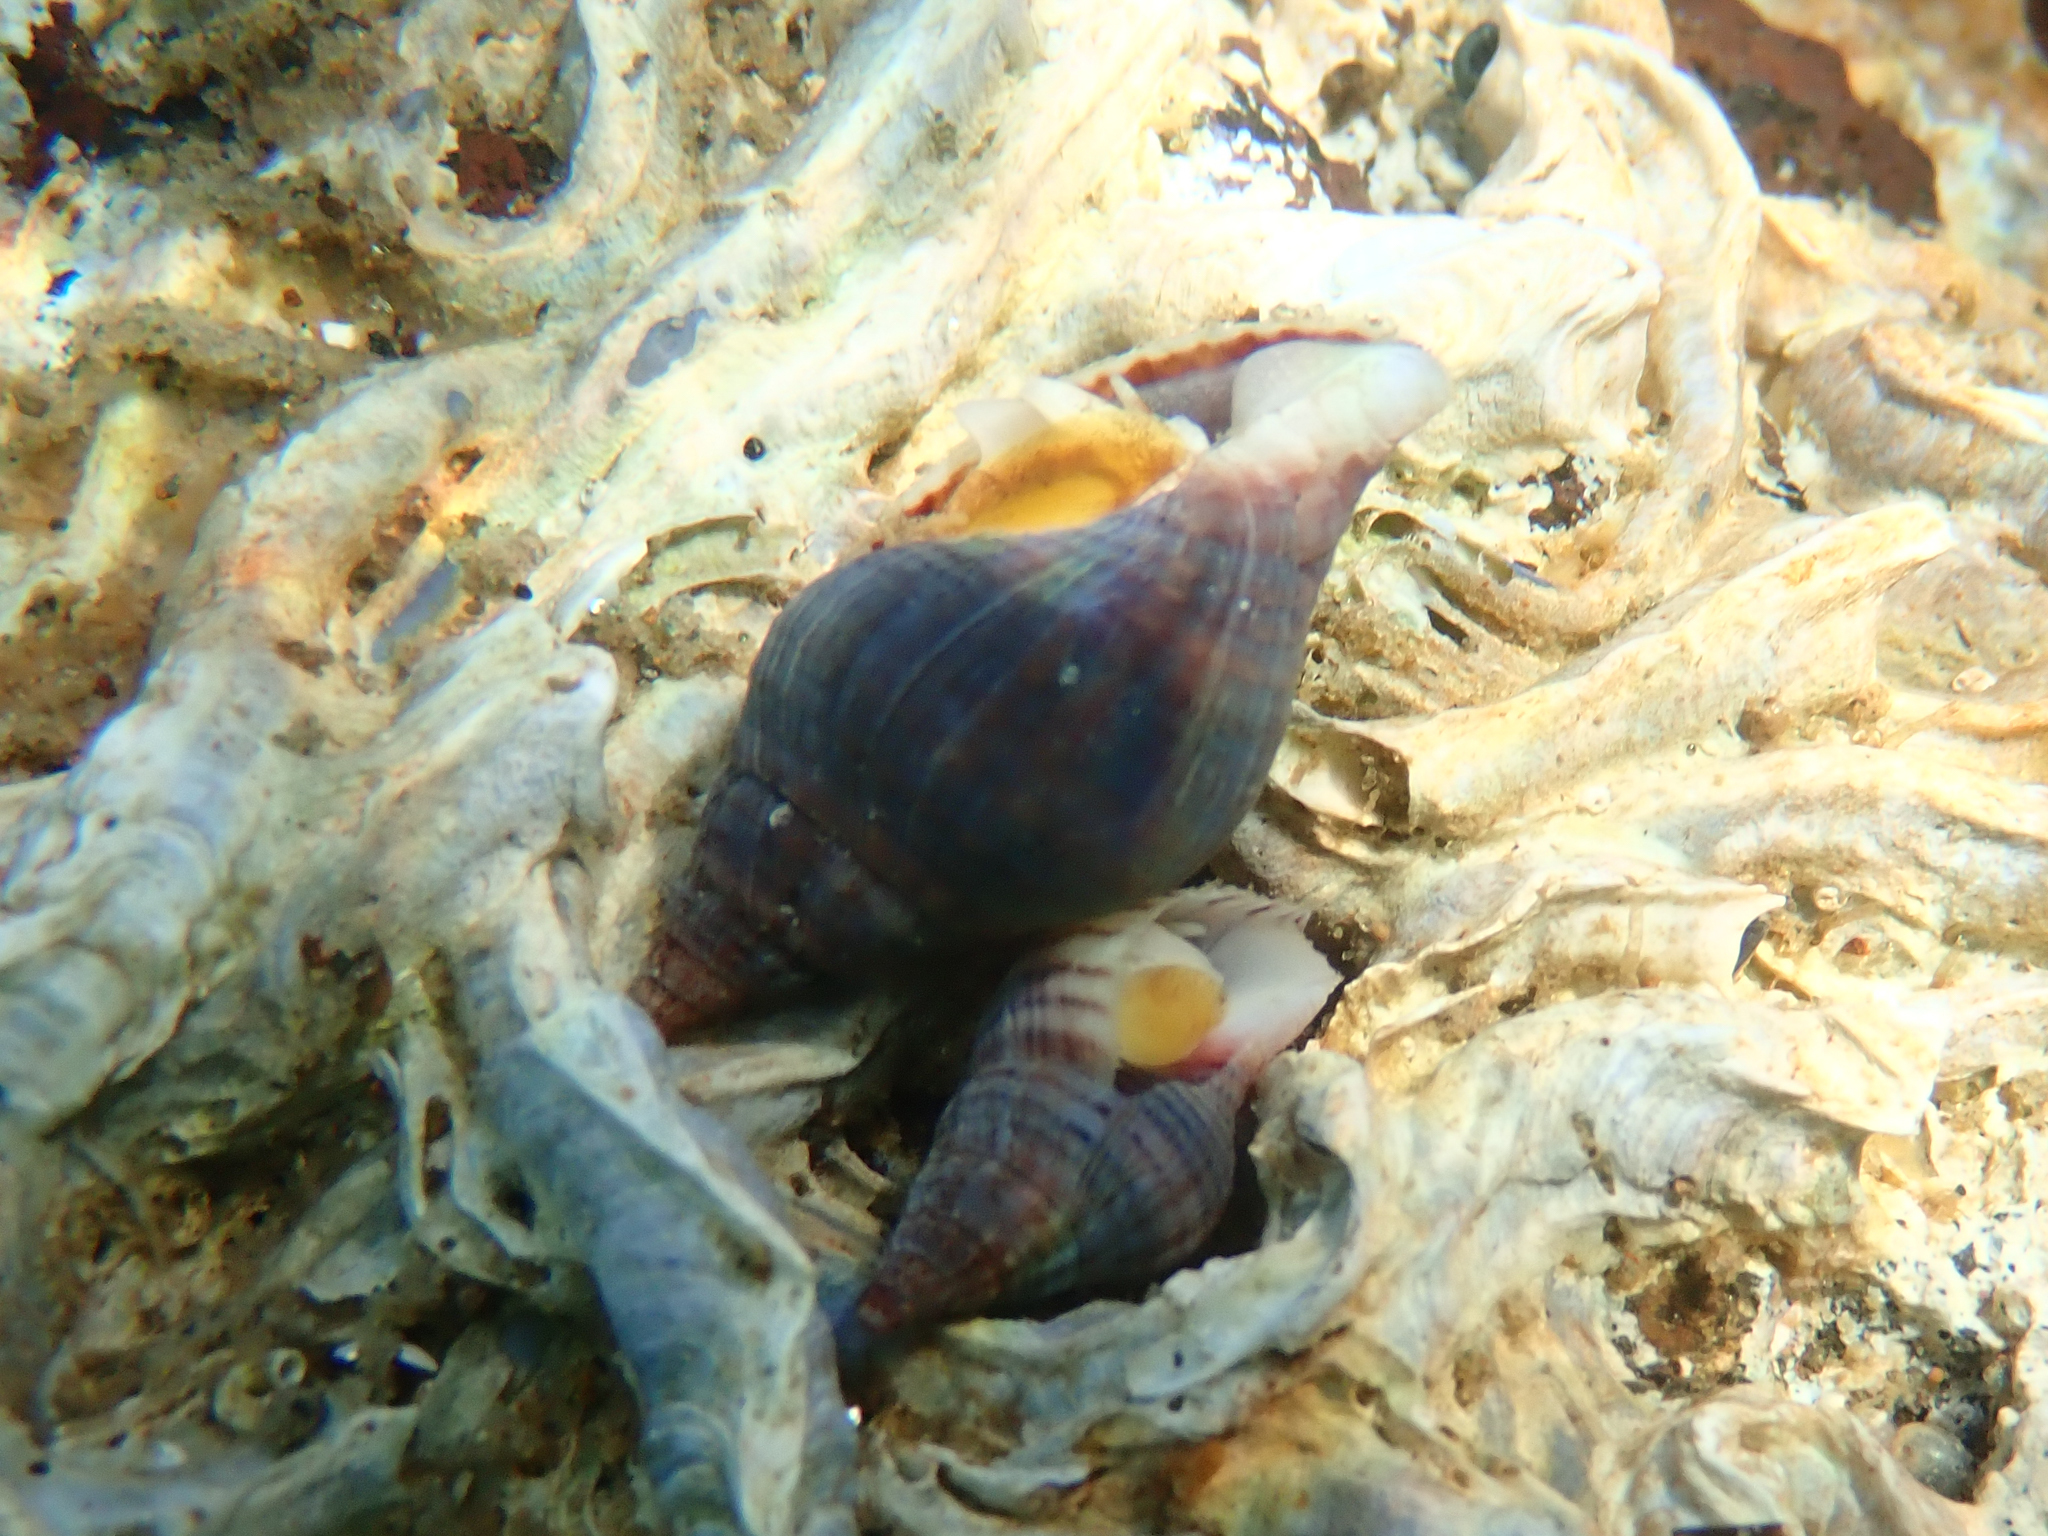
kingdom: Animalia
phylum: Mollusca
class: Gastropoda
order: Neogastropoda
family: Tudiclidae
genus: Buccinulum
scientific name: Buccinulum littorinoides
